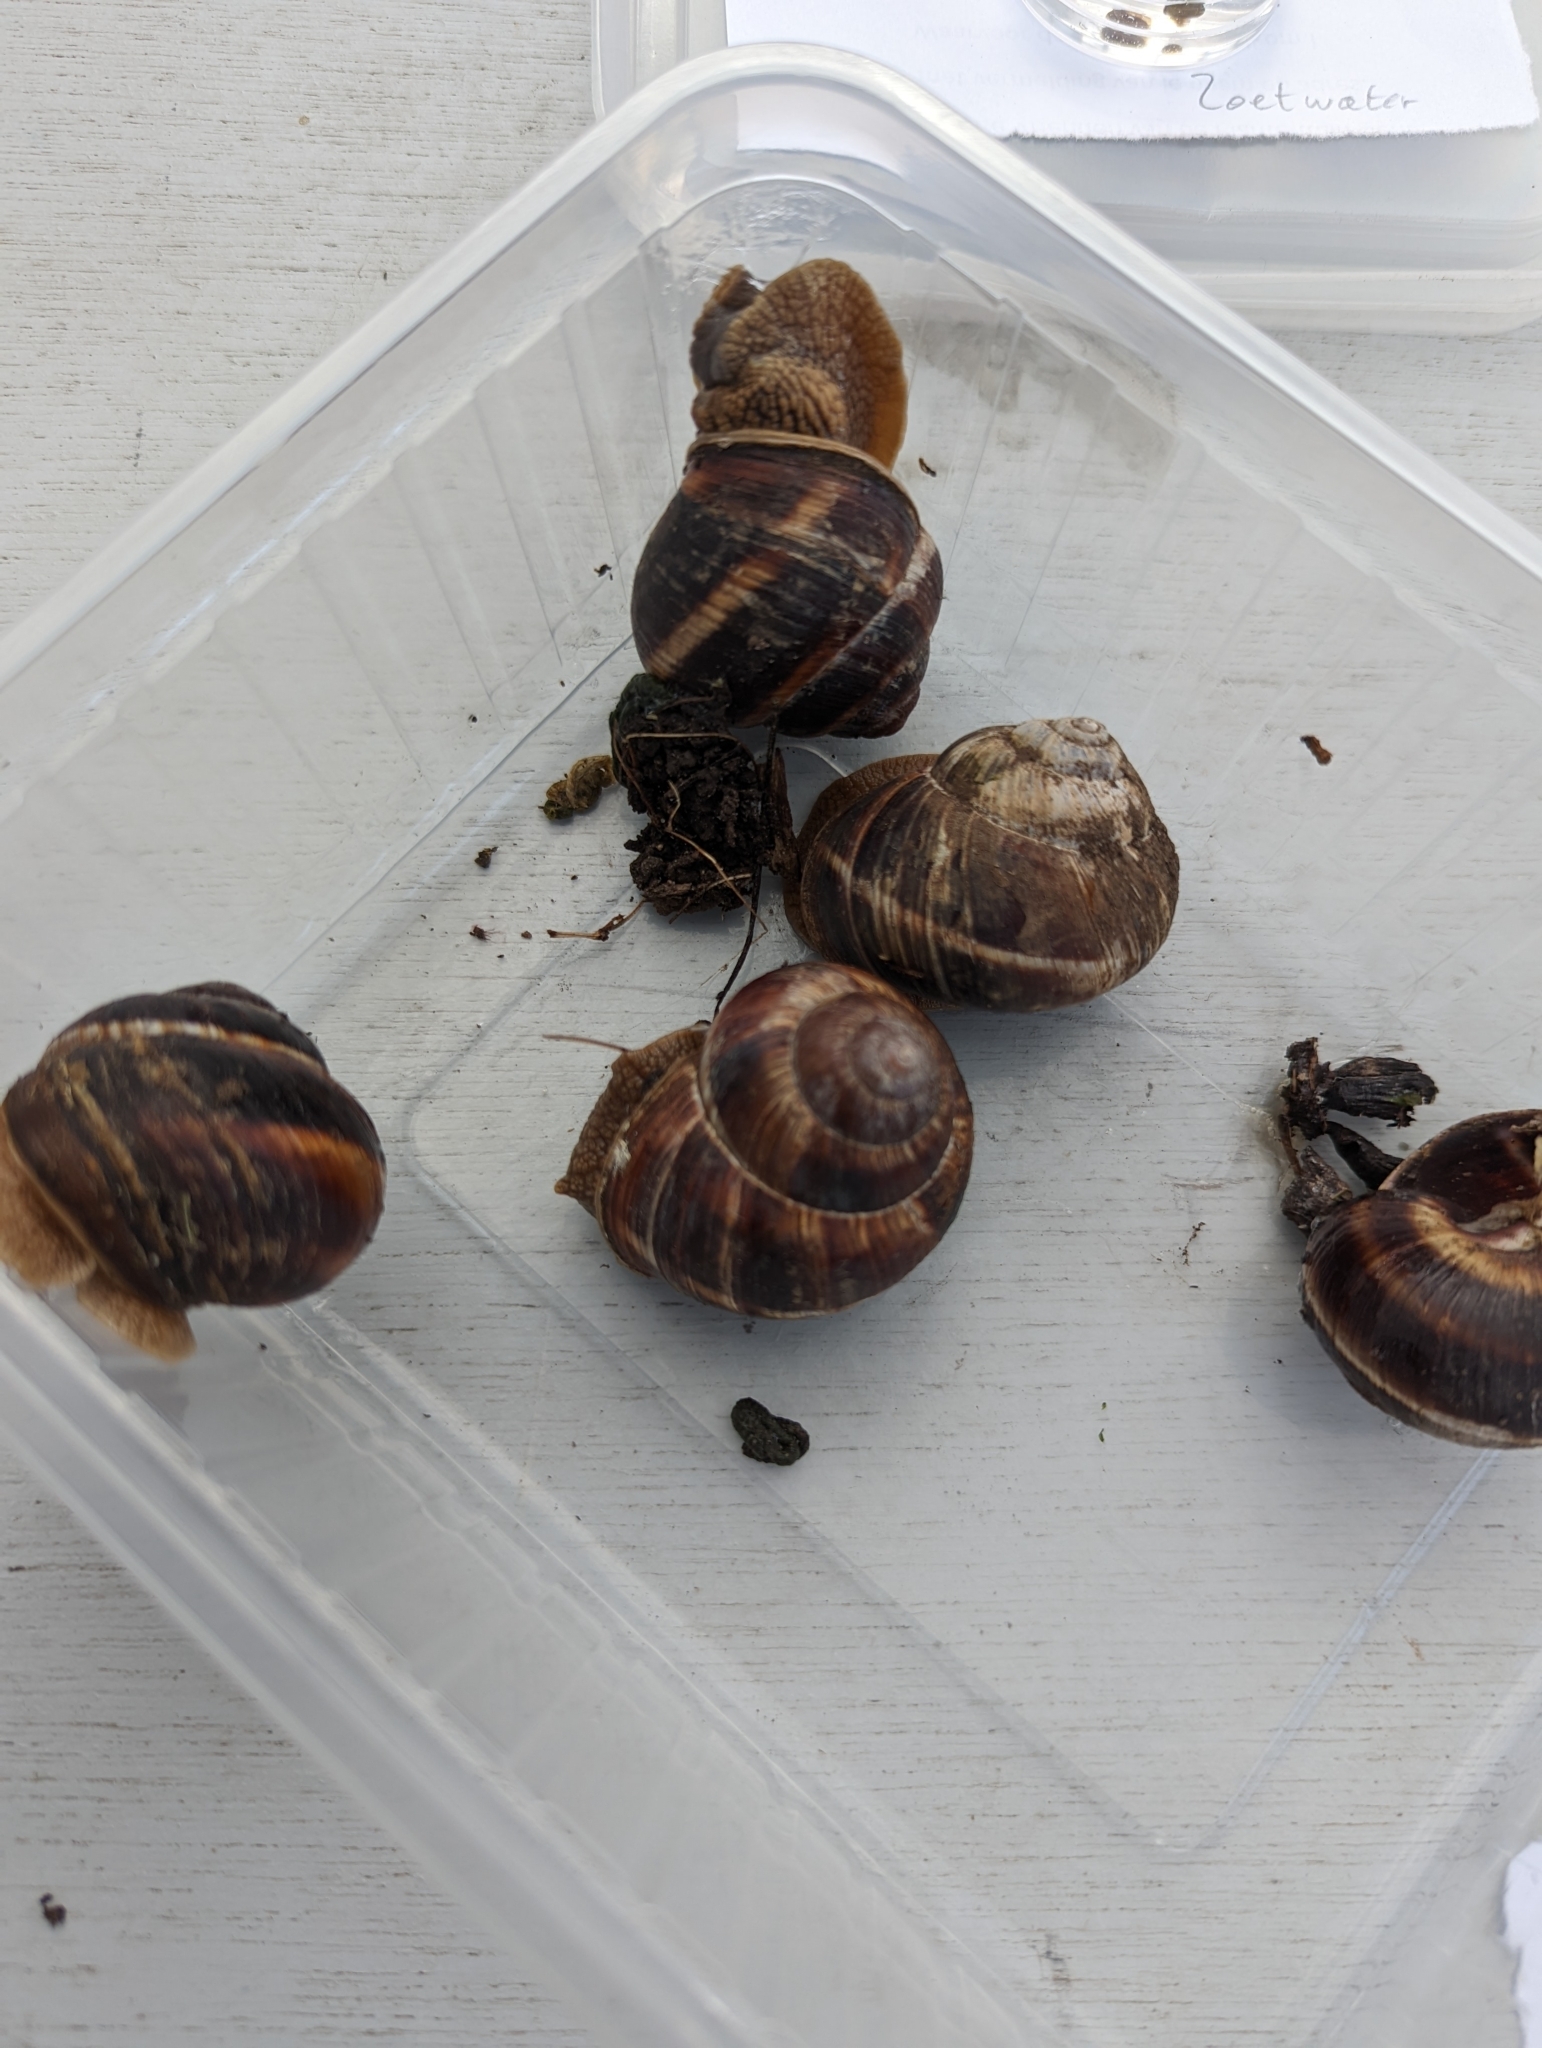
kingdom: Animalia
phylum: Mollusca
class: Gastropoda
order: Stylommatophora
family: Helicidae
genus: Helix
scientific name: Helix lucorum
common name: Turkish snail
